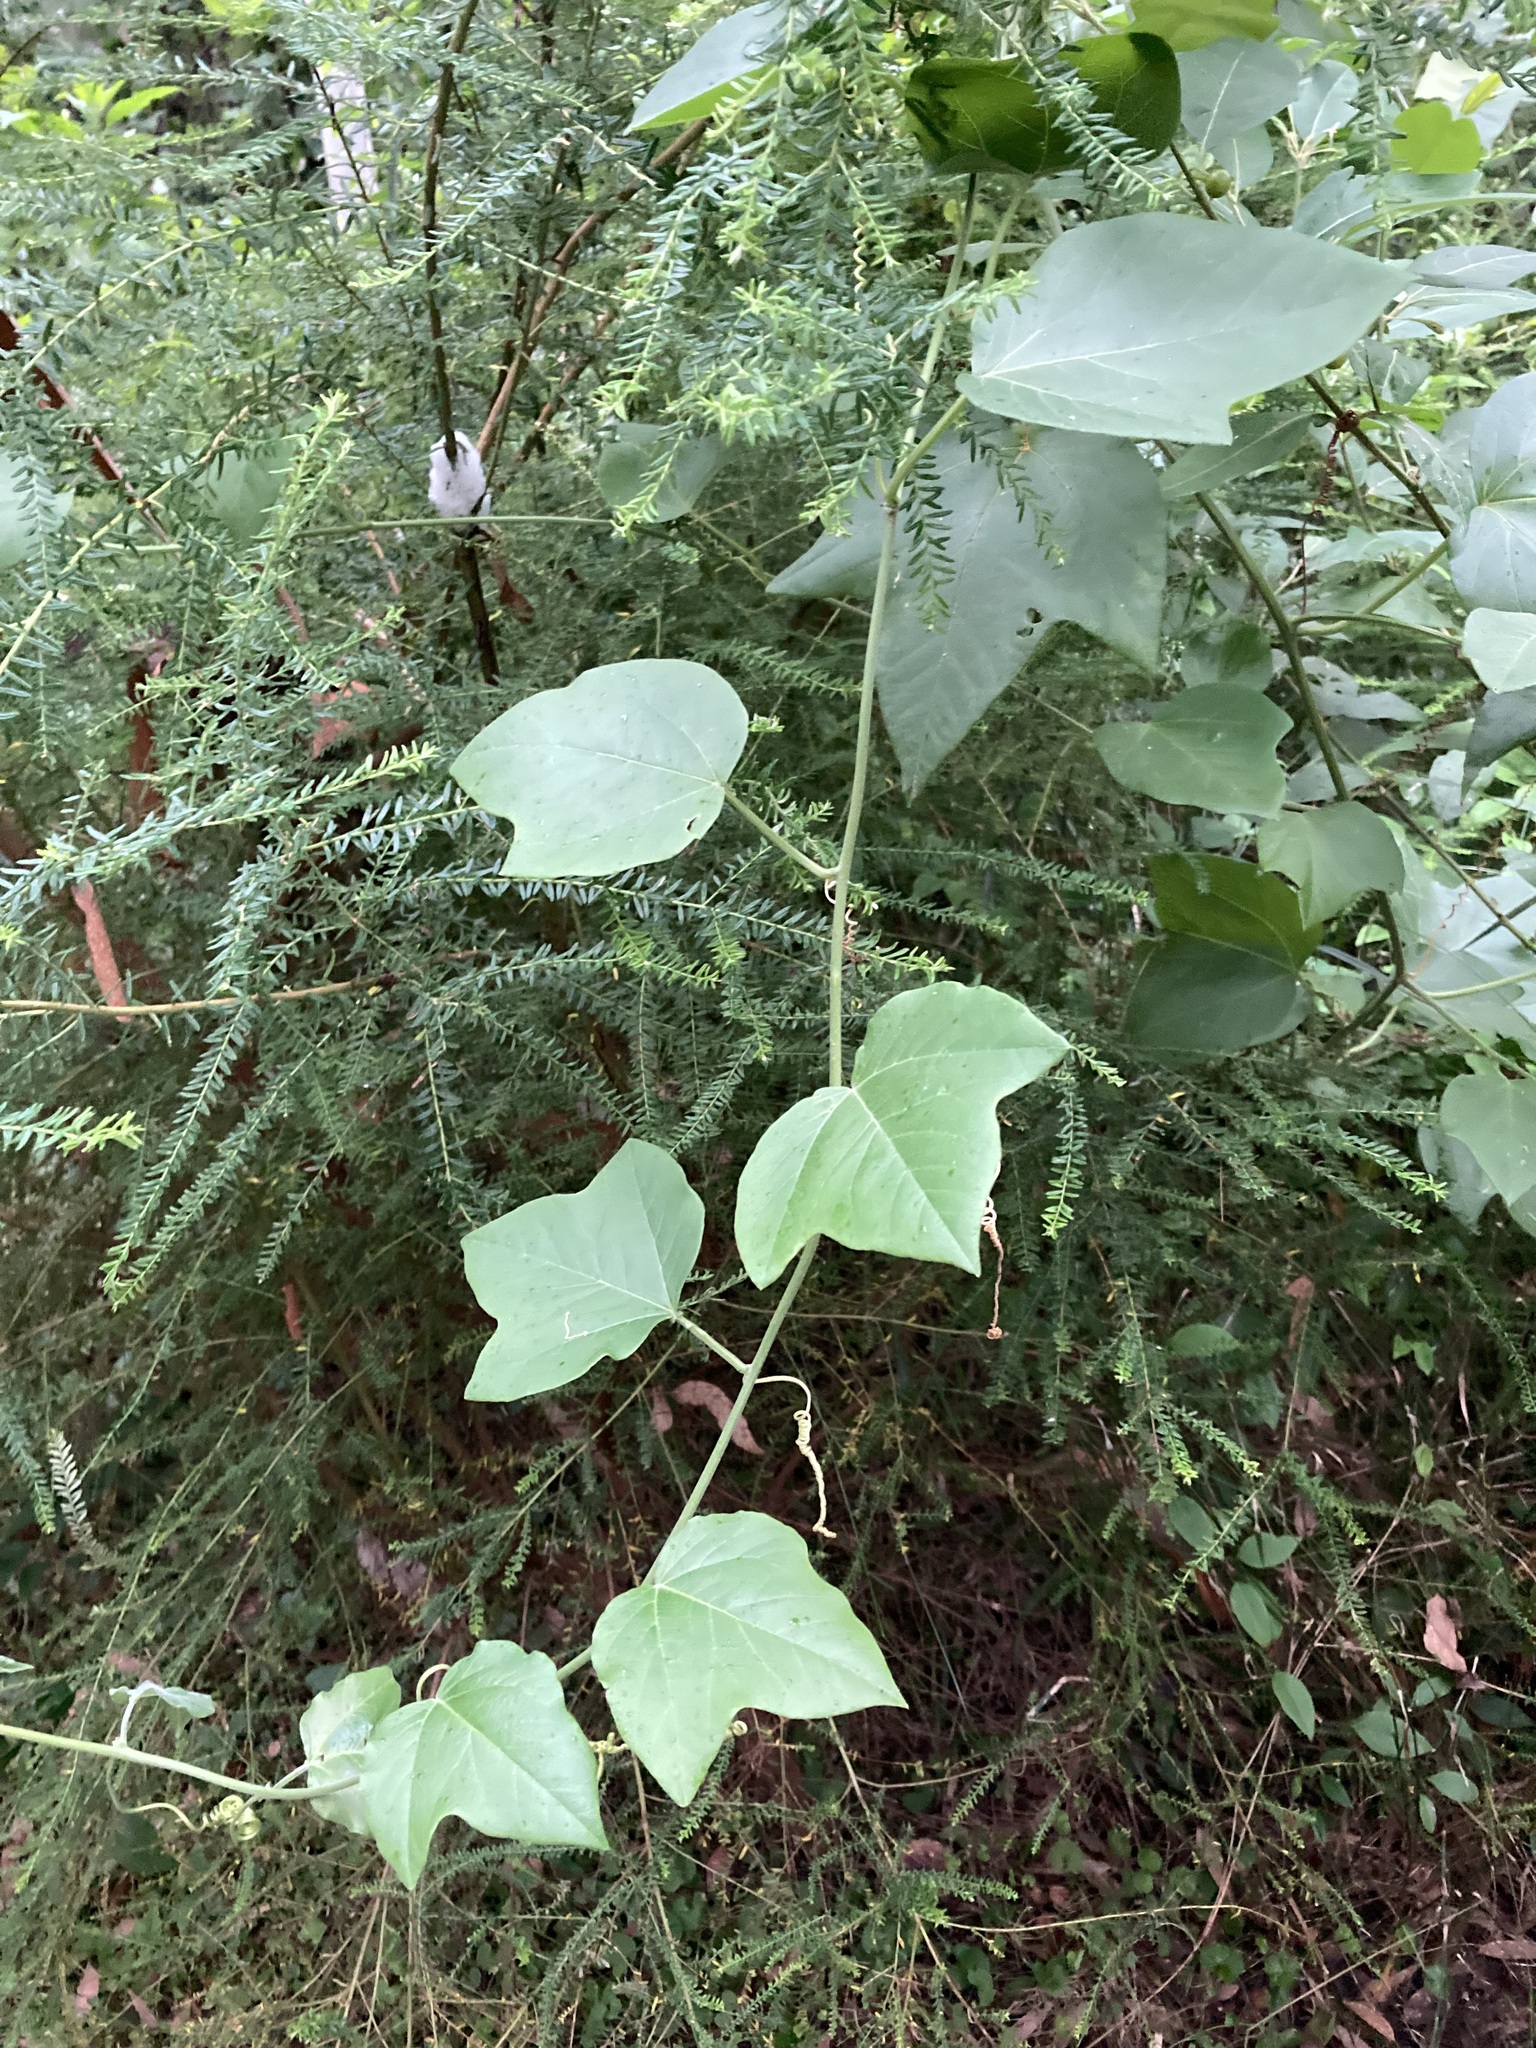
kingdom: Plantae
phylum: Tracheophyta
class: Magnoliopsida
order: Malpighiales
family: Passifloraceae
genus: Passiflora
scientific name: Passiflora herbertiana
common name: Yellow passionflower
